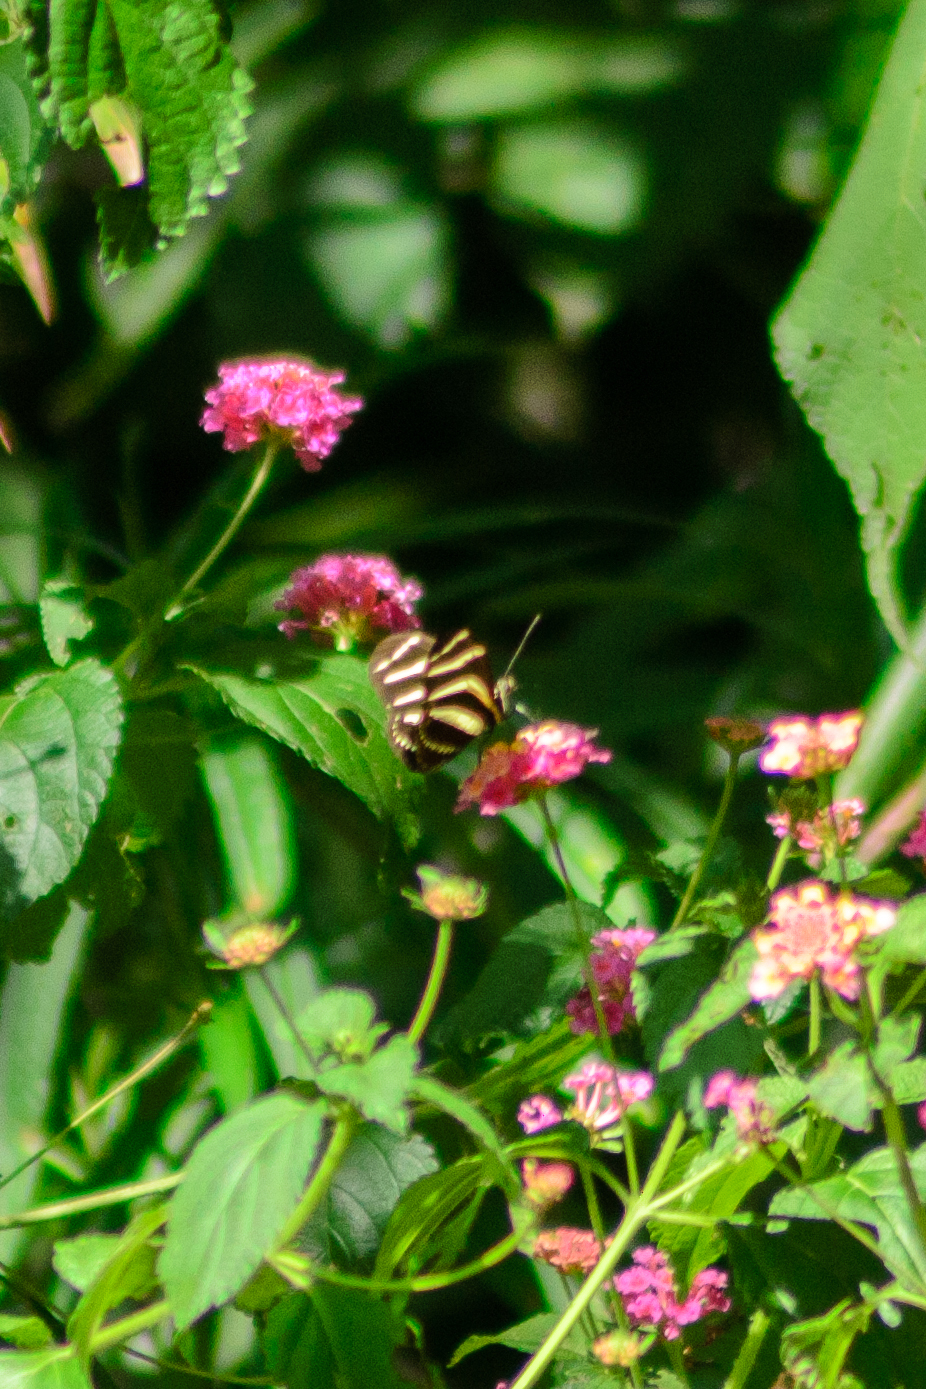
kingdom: Animalia
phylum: Arthropoda
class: Insecta
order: Lepidoptera
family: Nymphalidae
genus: Heliconius
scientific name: Heliconius charithonia
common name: Zebra long wing
